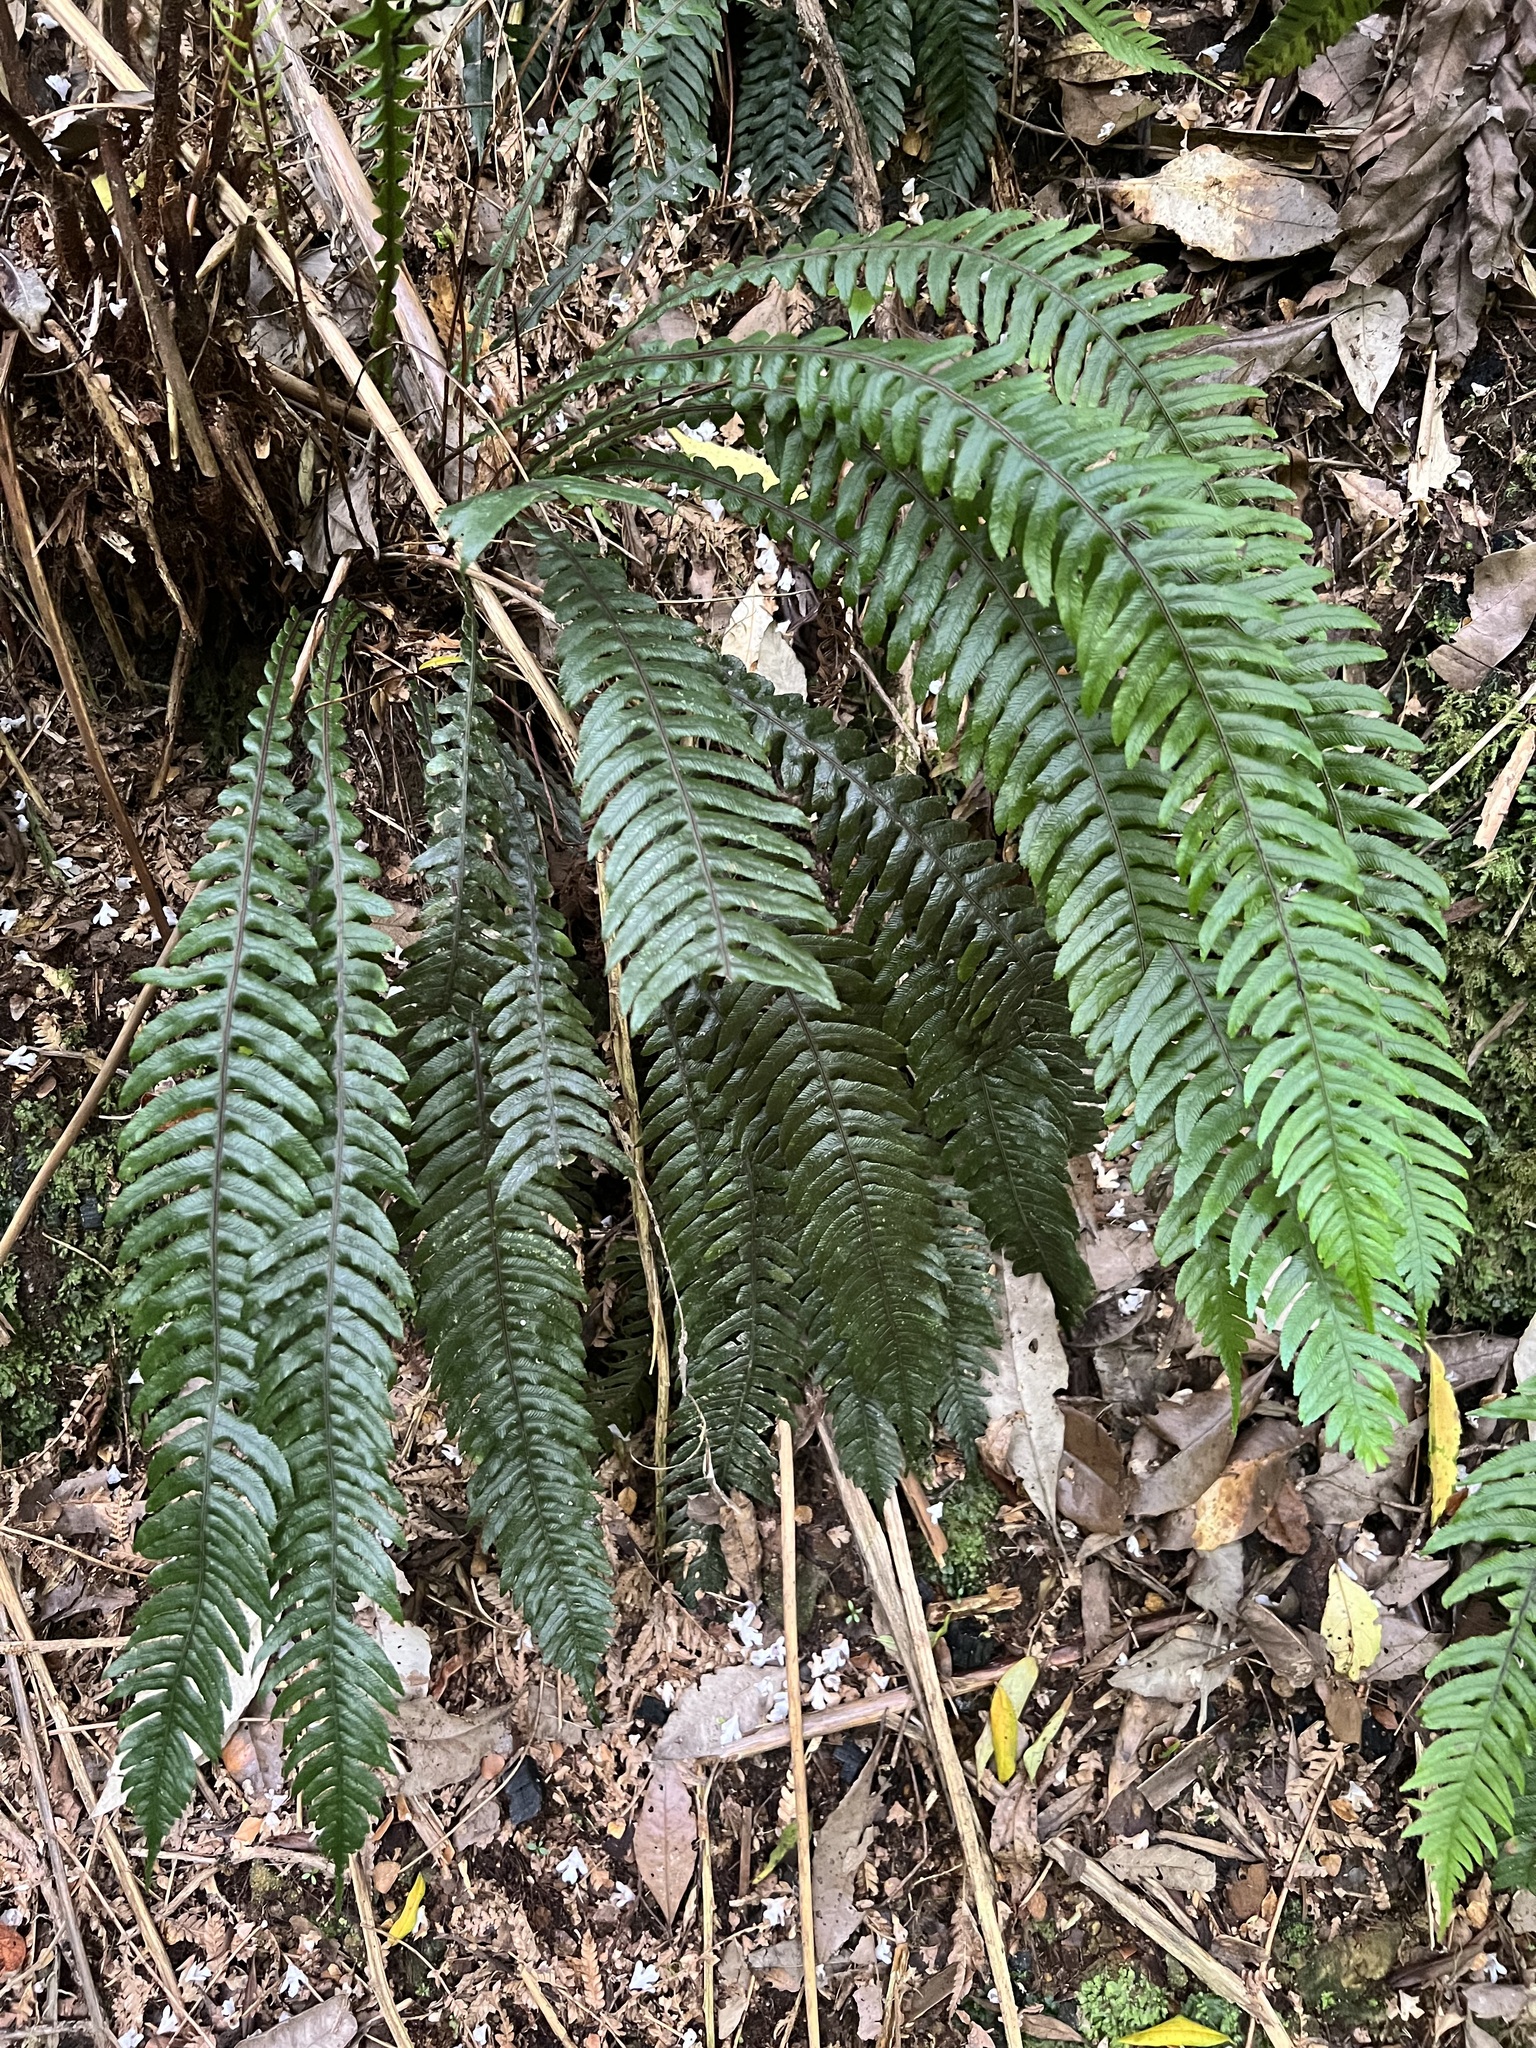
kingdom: Plantae
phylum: Tracheophyta
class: Polypodiopsida
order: Polypodiales
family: Blechnaceae
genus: Austroblechnum
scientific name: Austroblechnum lanceolatum
